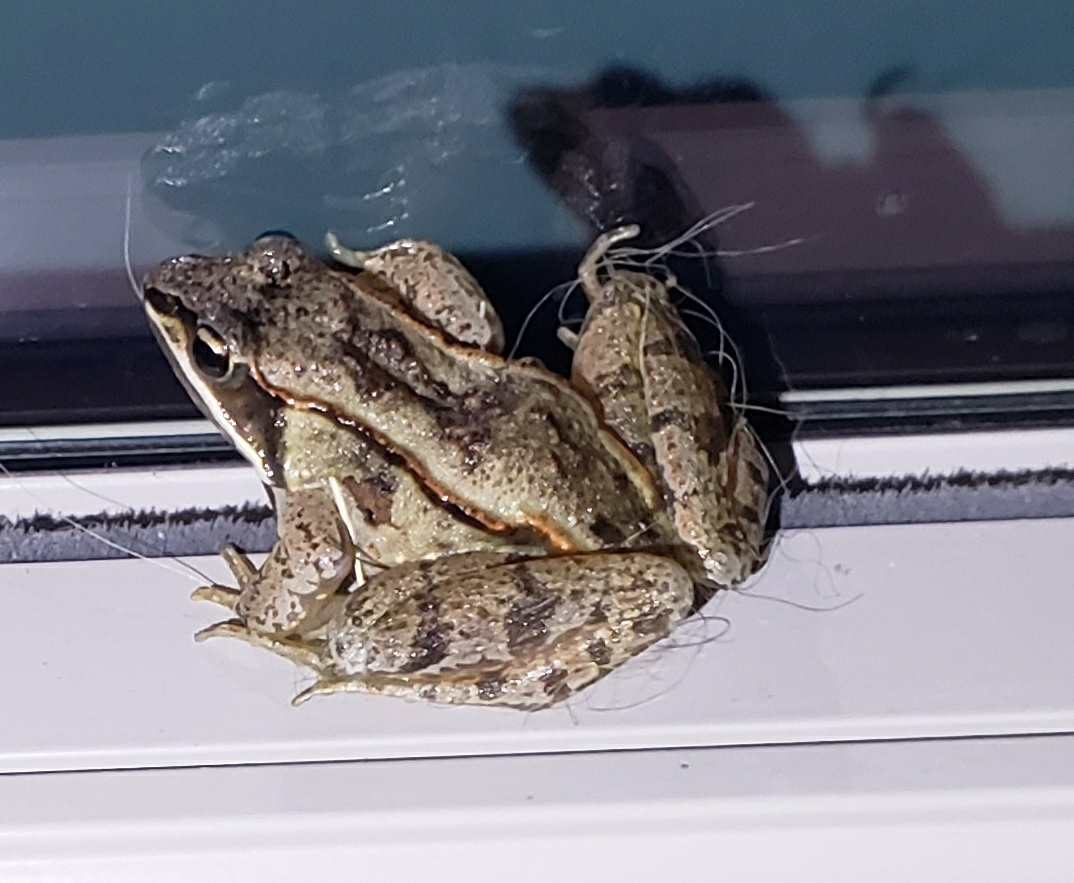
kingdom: Animalia
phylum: Chordata
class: Amphibia
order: Anura
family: Ranidae
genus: Lithobates
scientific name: Lithobates sylvaticus
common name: Wood frog
